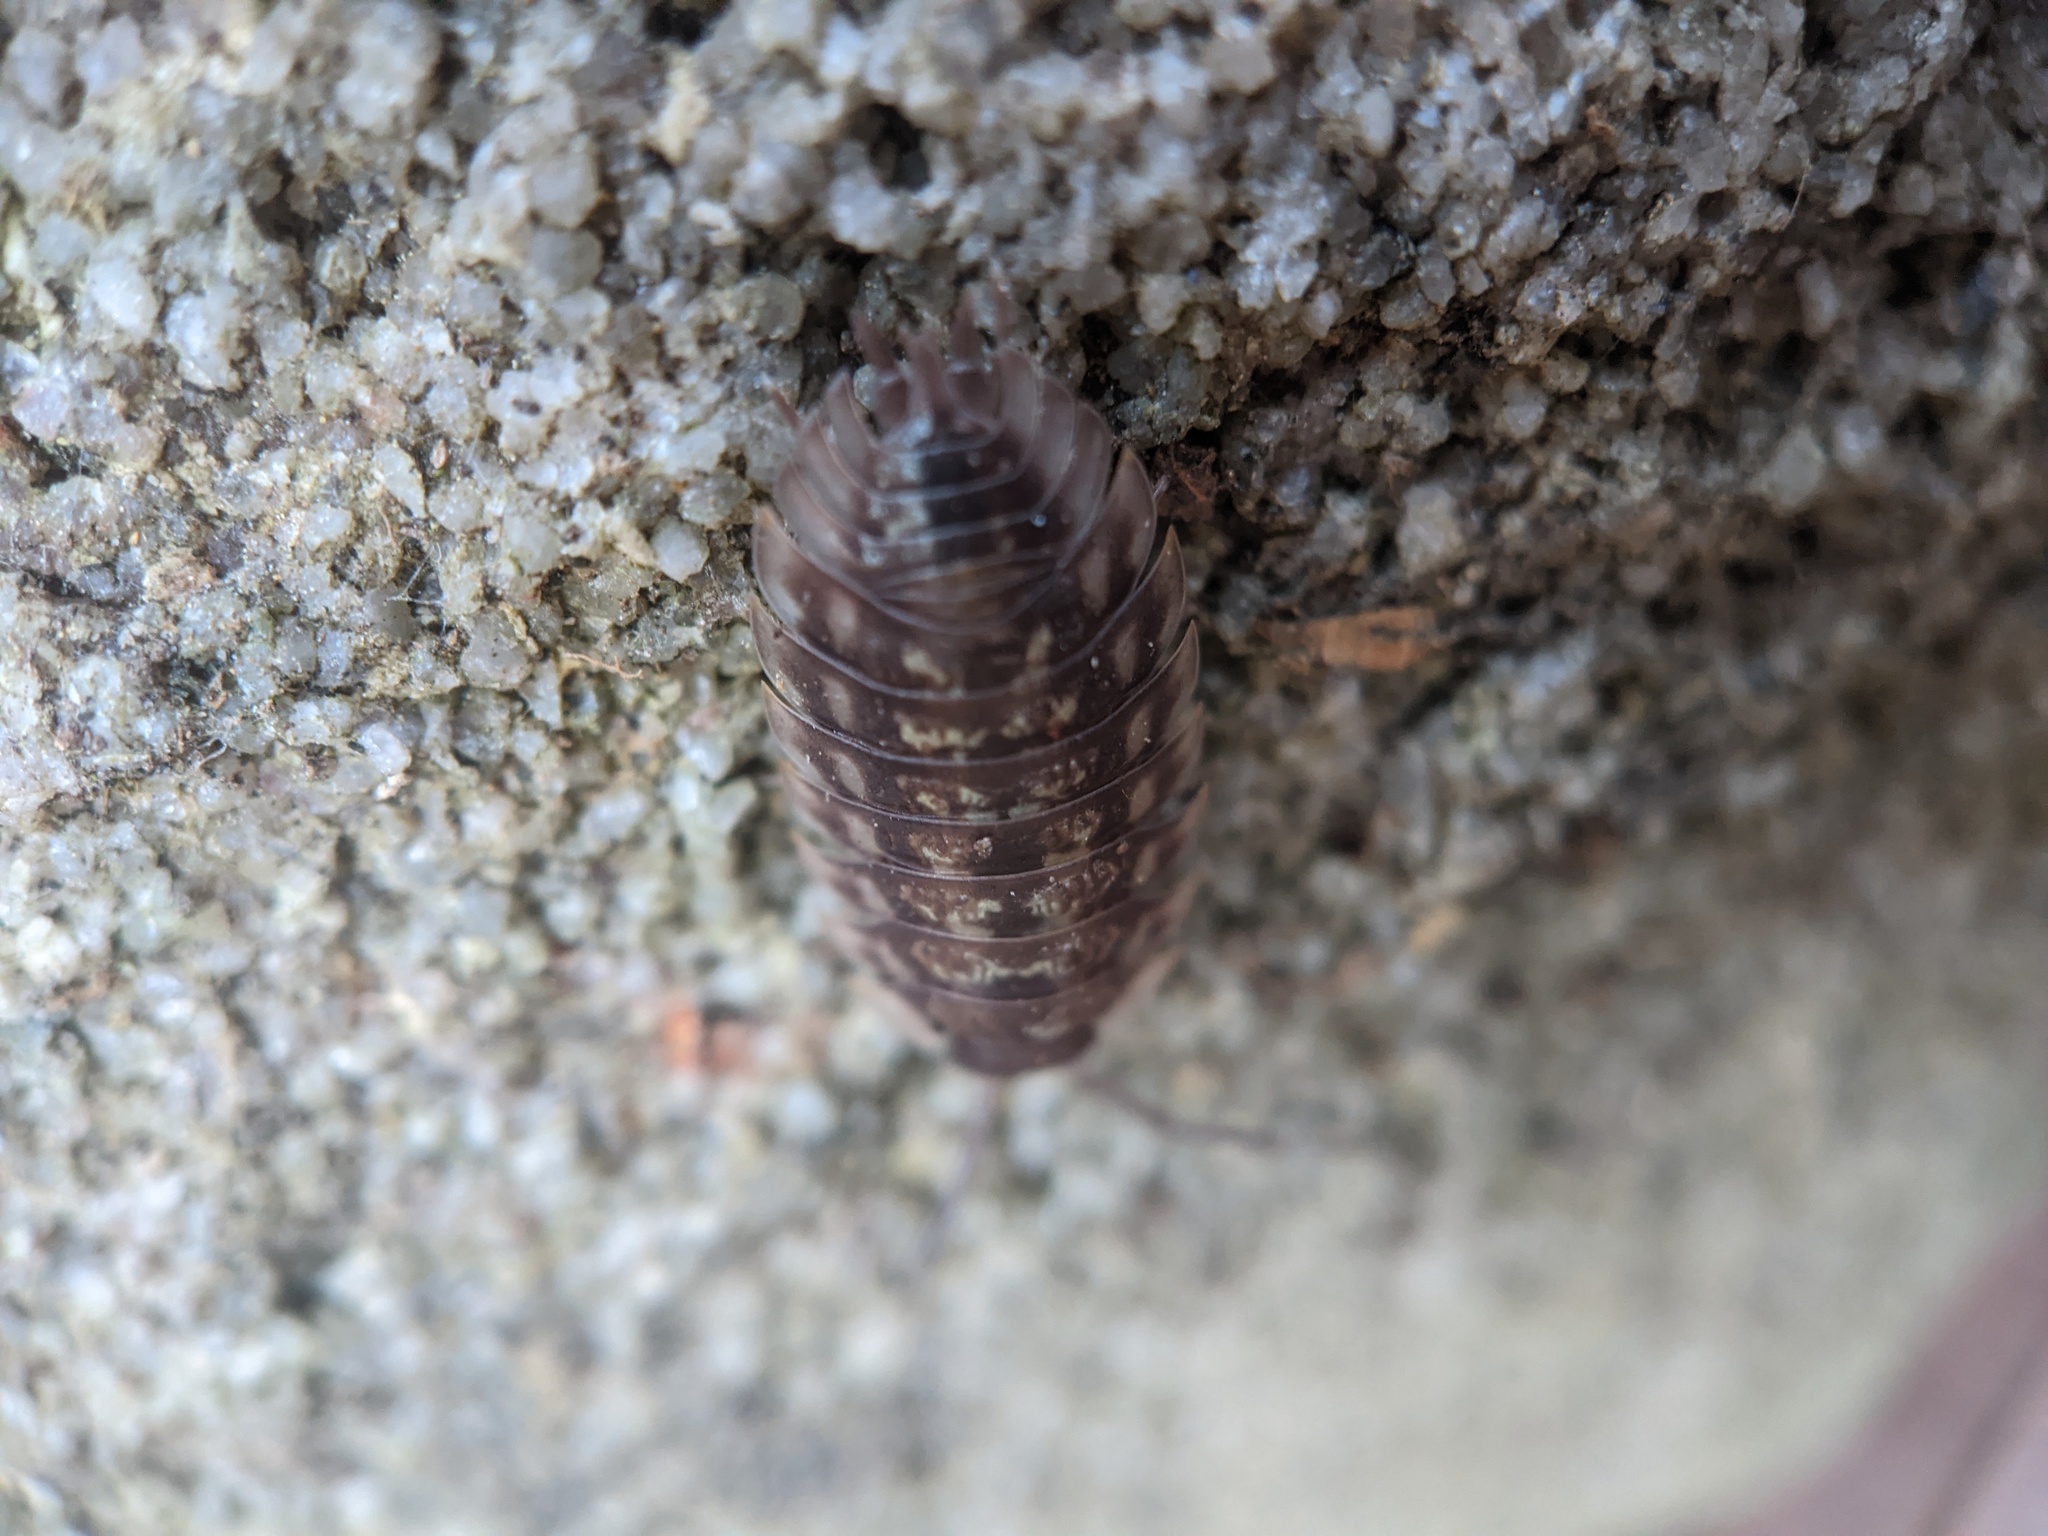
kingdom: Animalia
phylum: Arthropoda
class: Malacostraca
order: Isopoda
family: Oniscidae
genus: Oniscus
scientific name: Oniscus asellus
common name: Common shiny woodlouse
